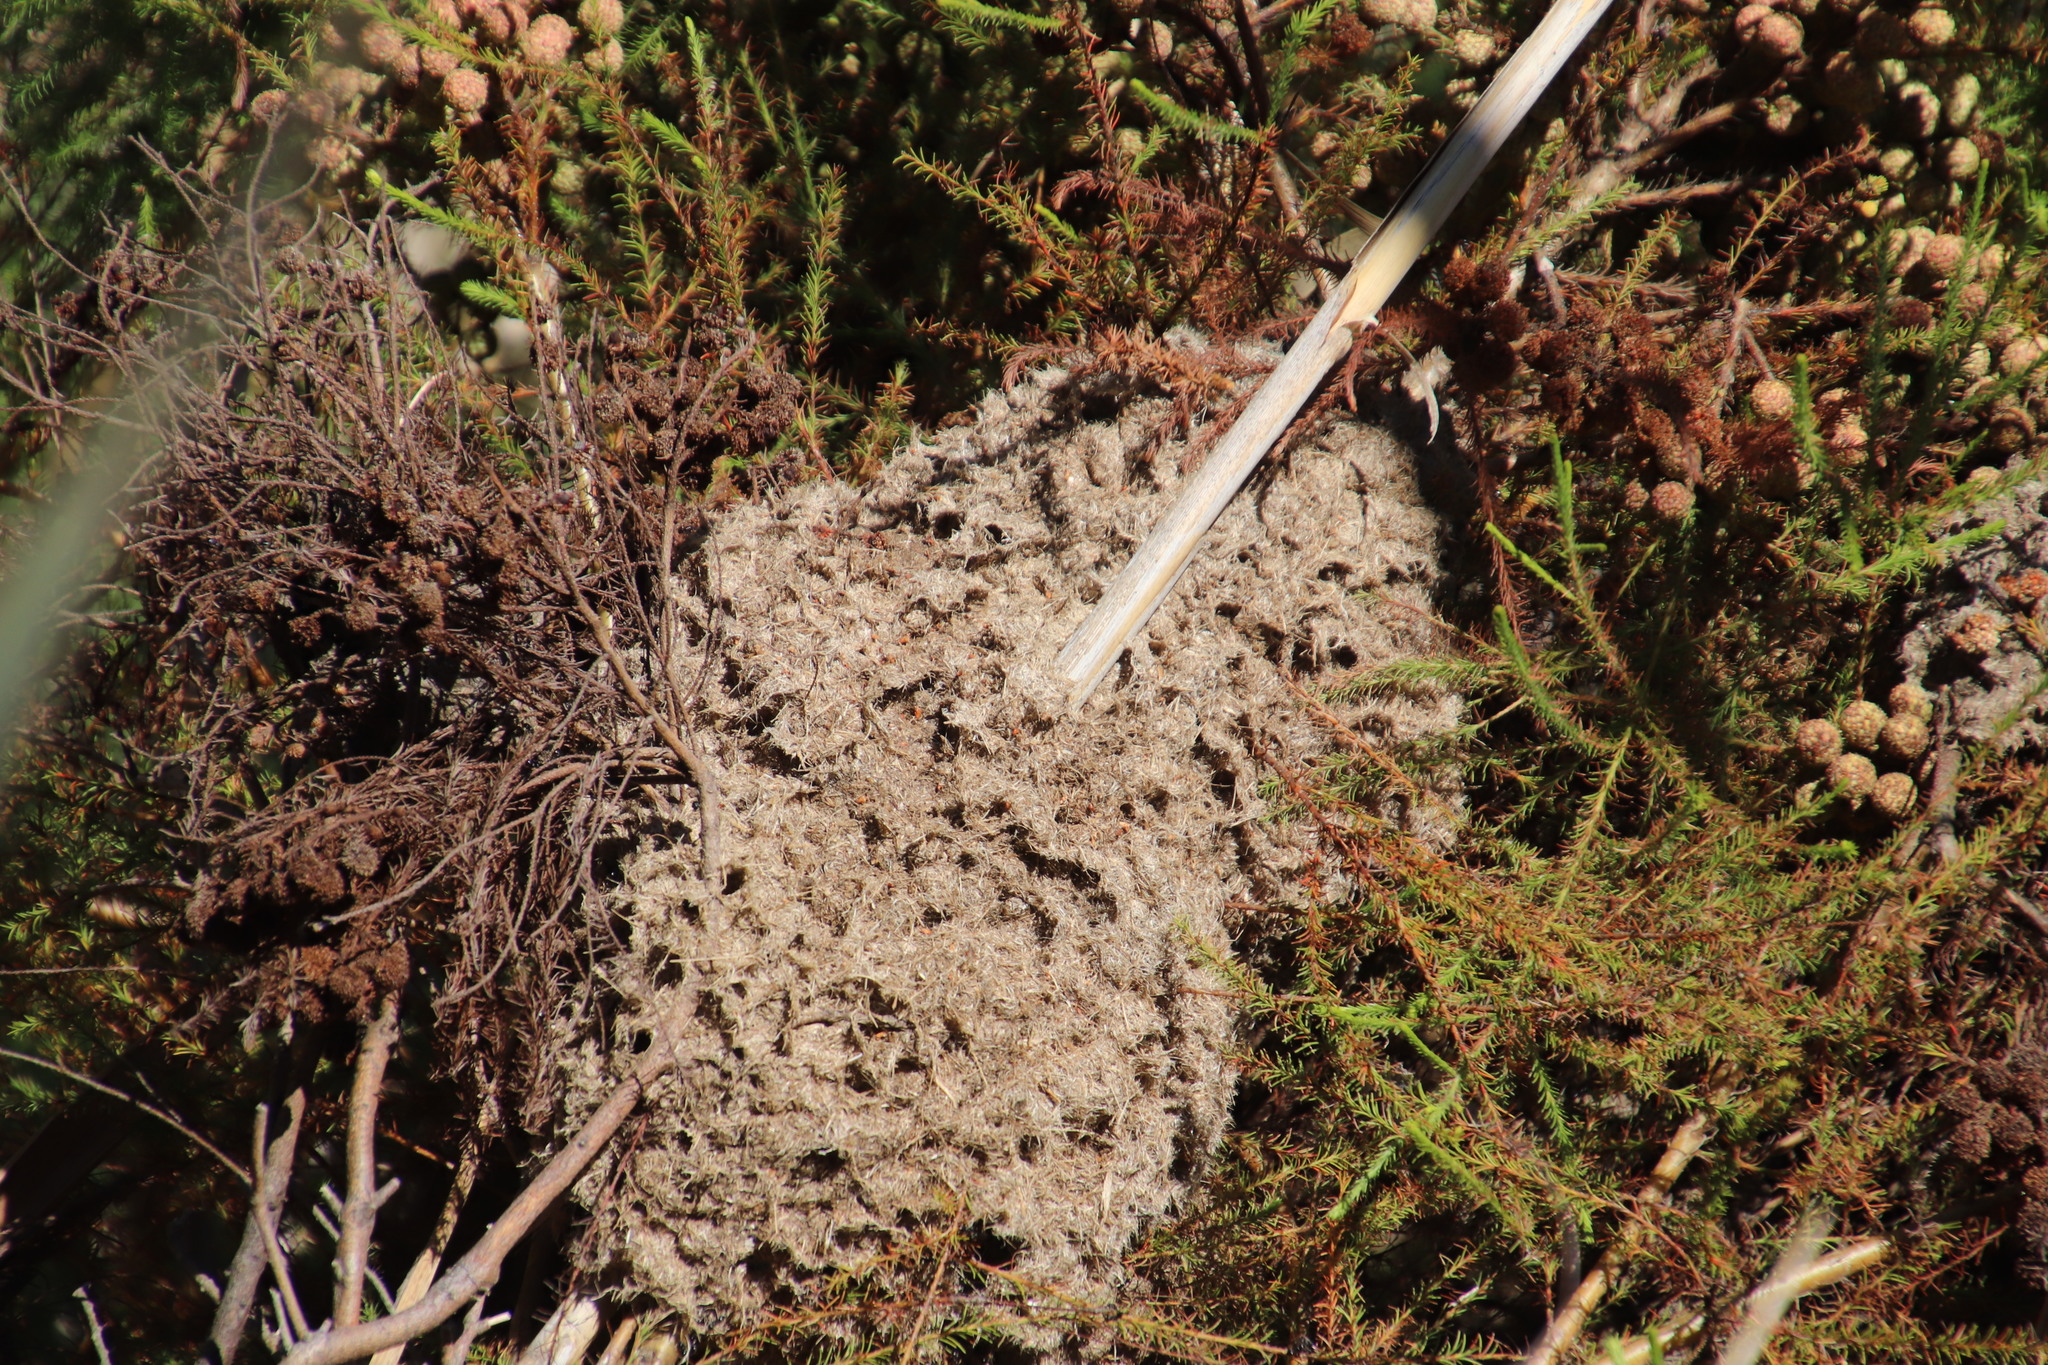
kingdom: Animalia
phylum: Arthropoda
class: Insecta
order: Hymenoptera
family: Formicidae
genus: Crematogaster
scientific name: Crematogaster peringueyi
